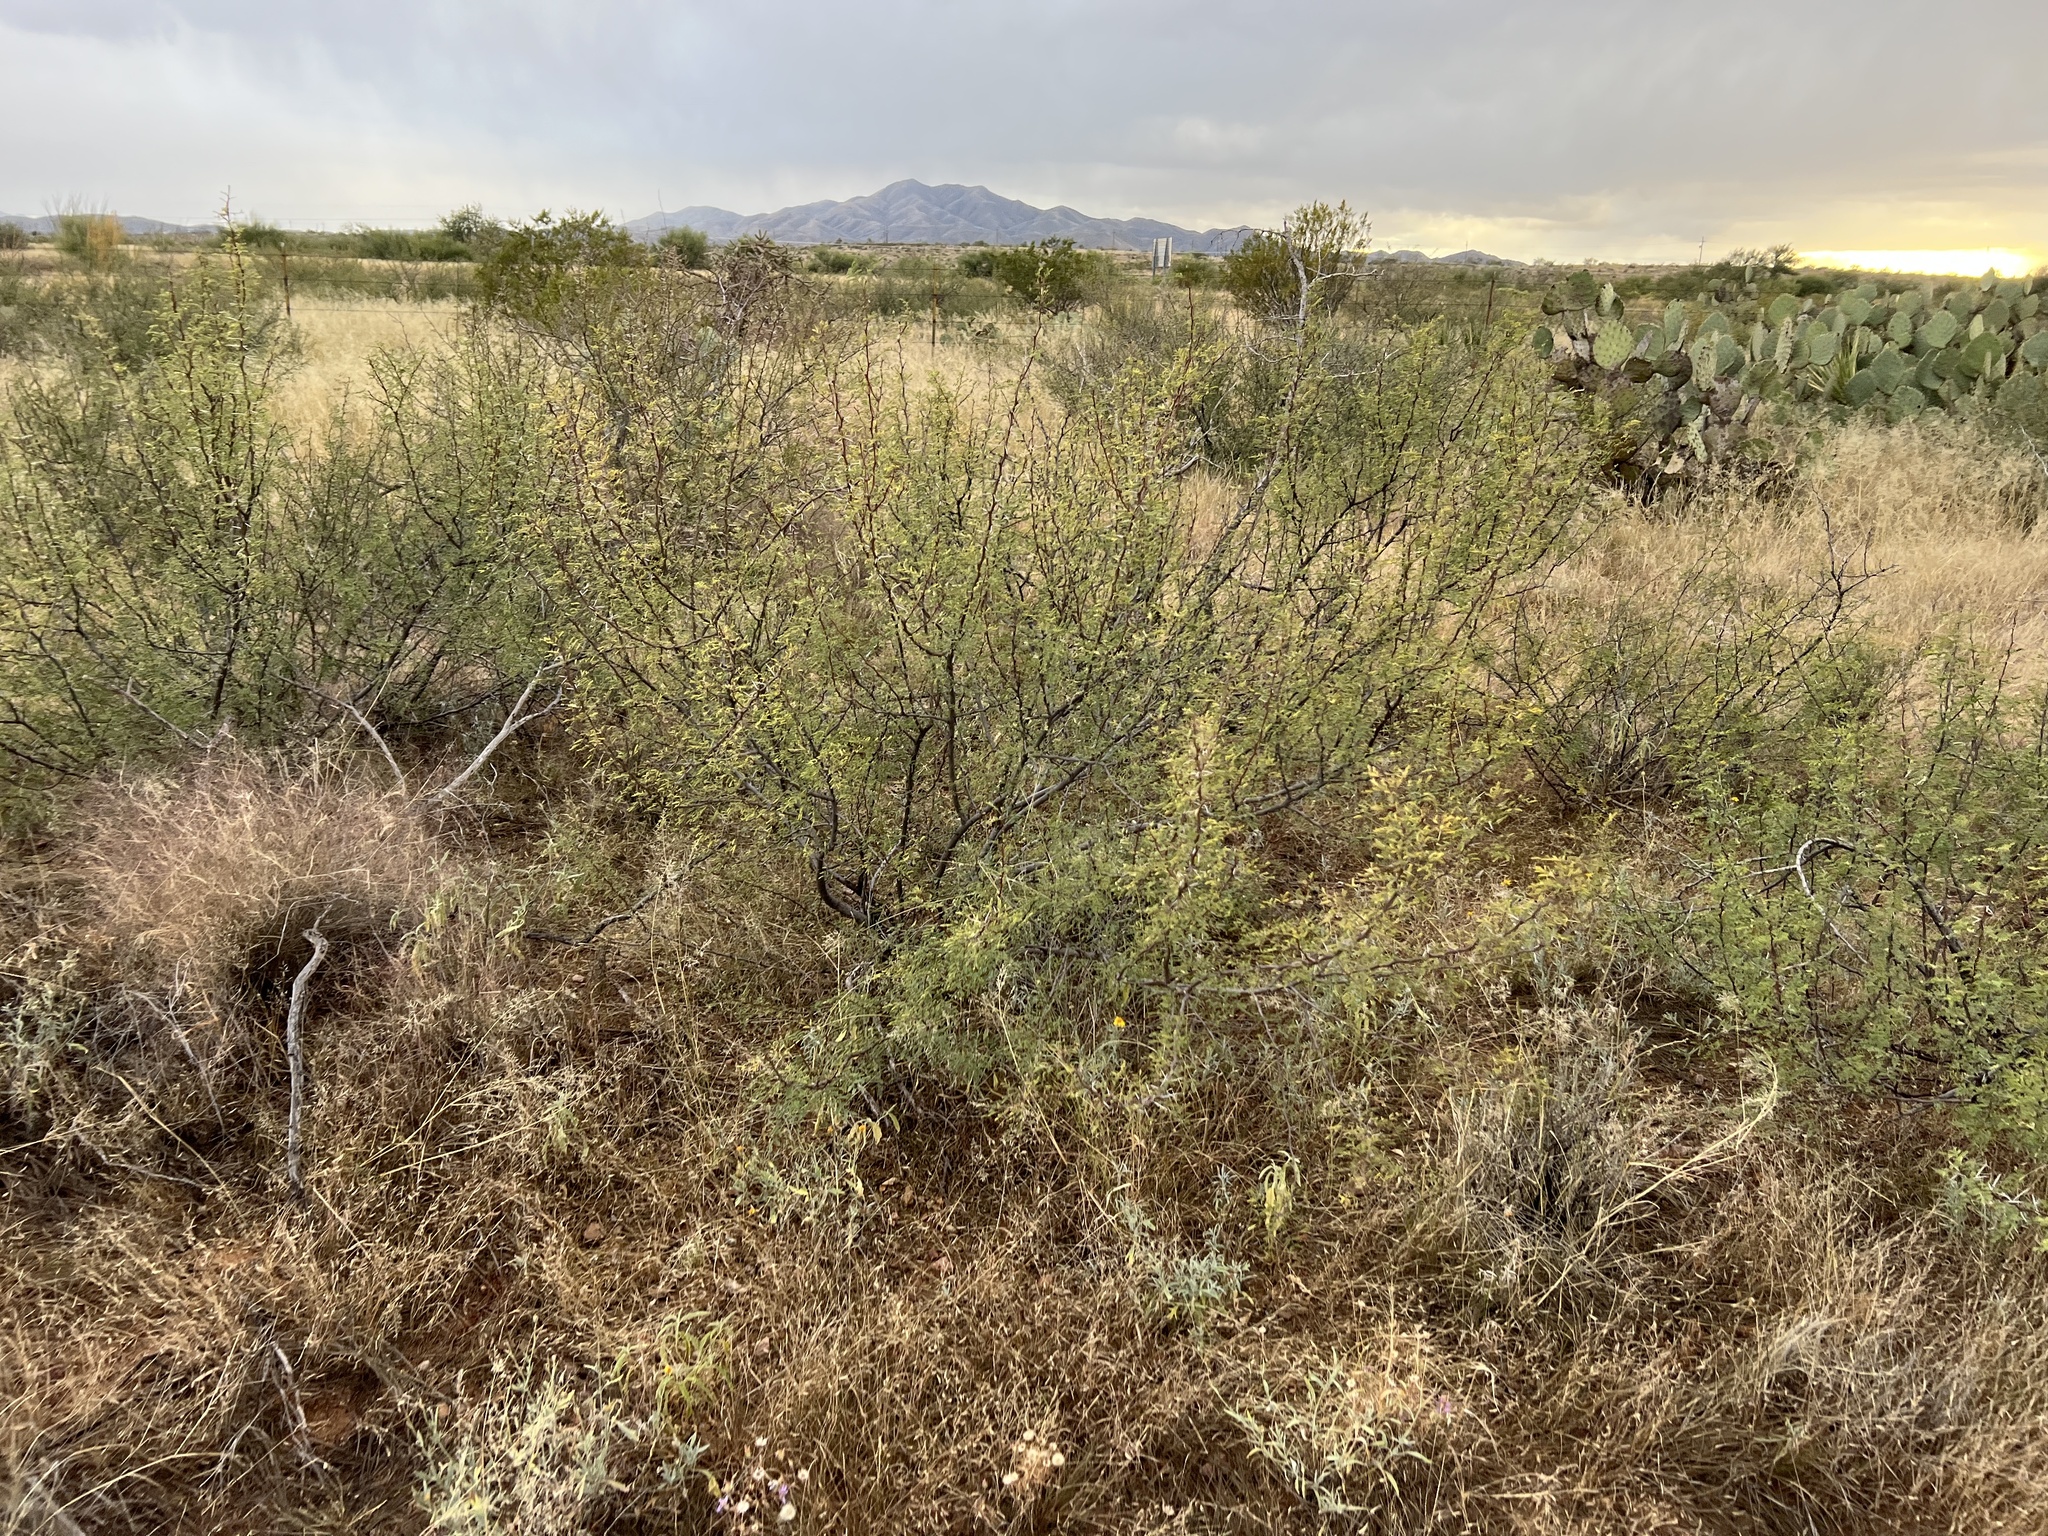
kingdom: Plantae
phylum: Tracheophyta
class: Magnoliopsida
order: Fabales
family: Fabaceae
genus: Vachellia
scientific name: Vachellia constricta
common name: Mescat acacia
